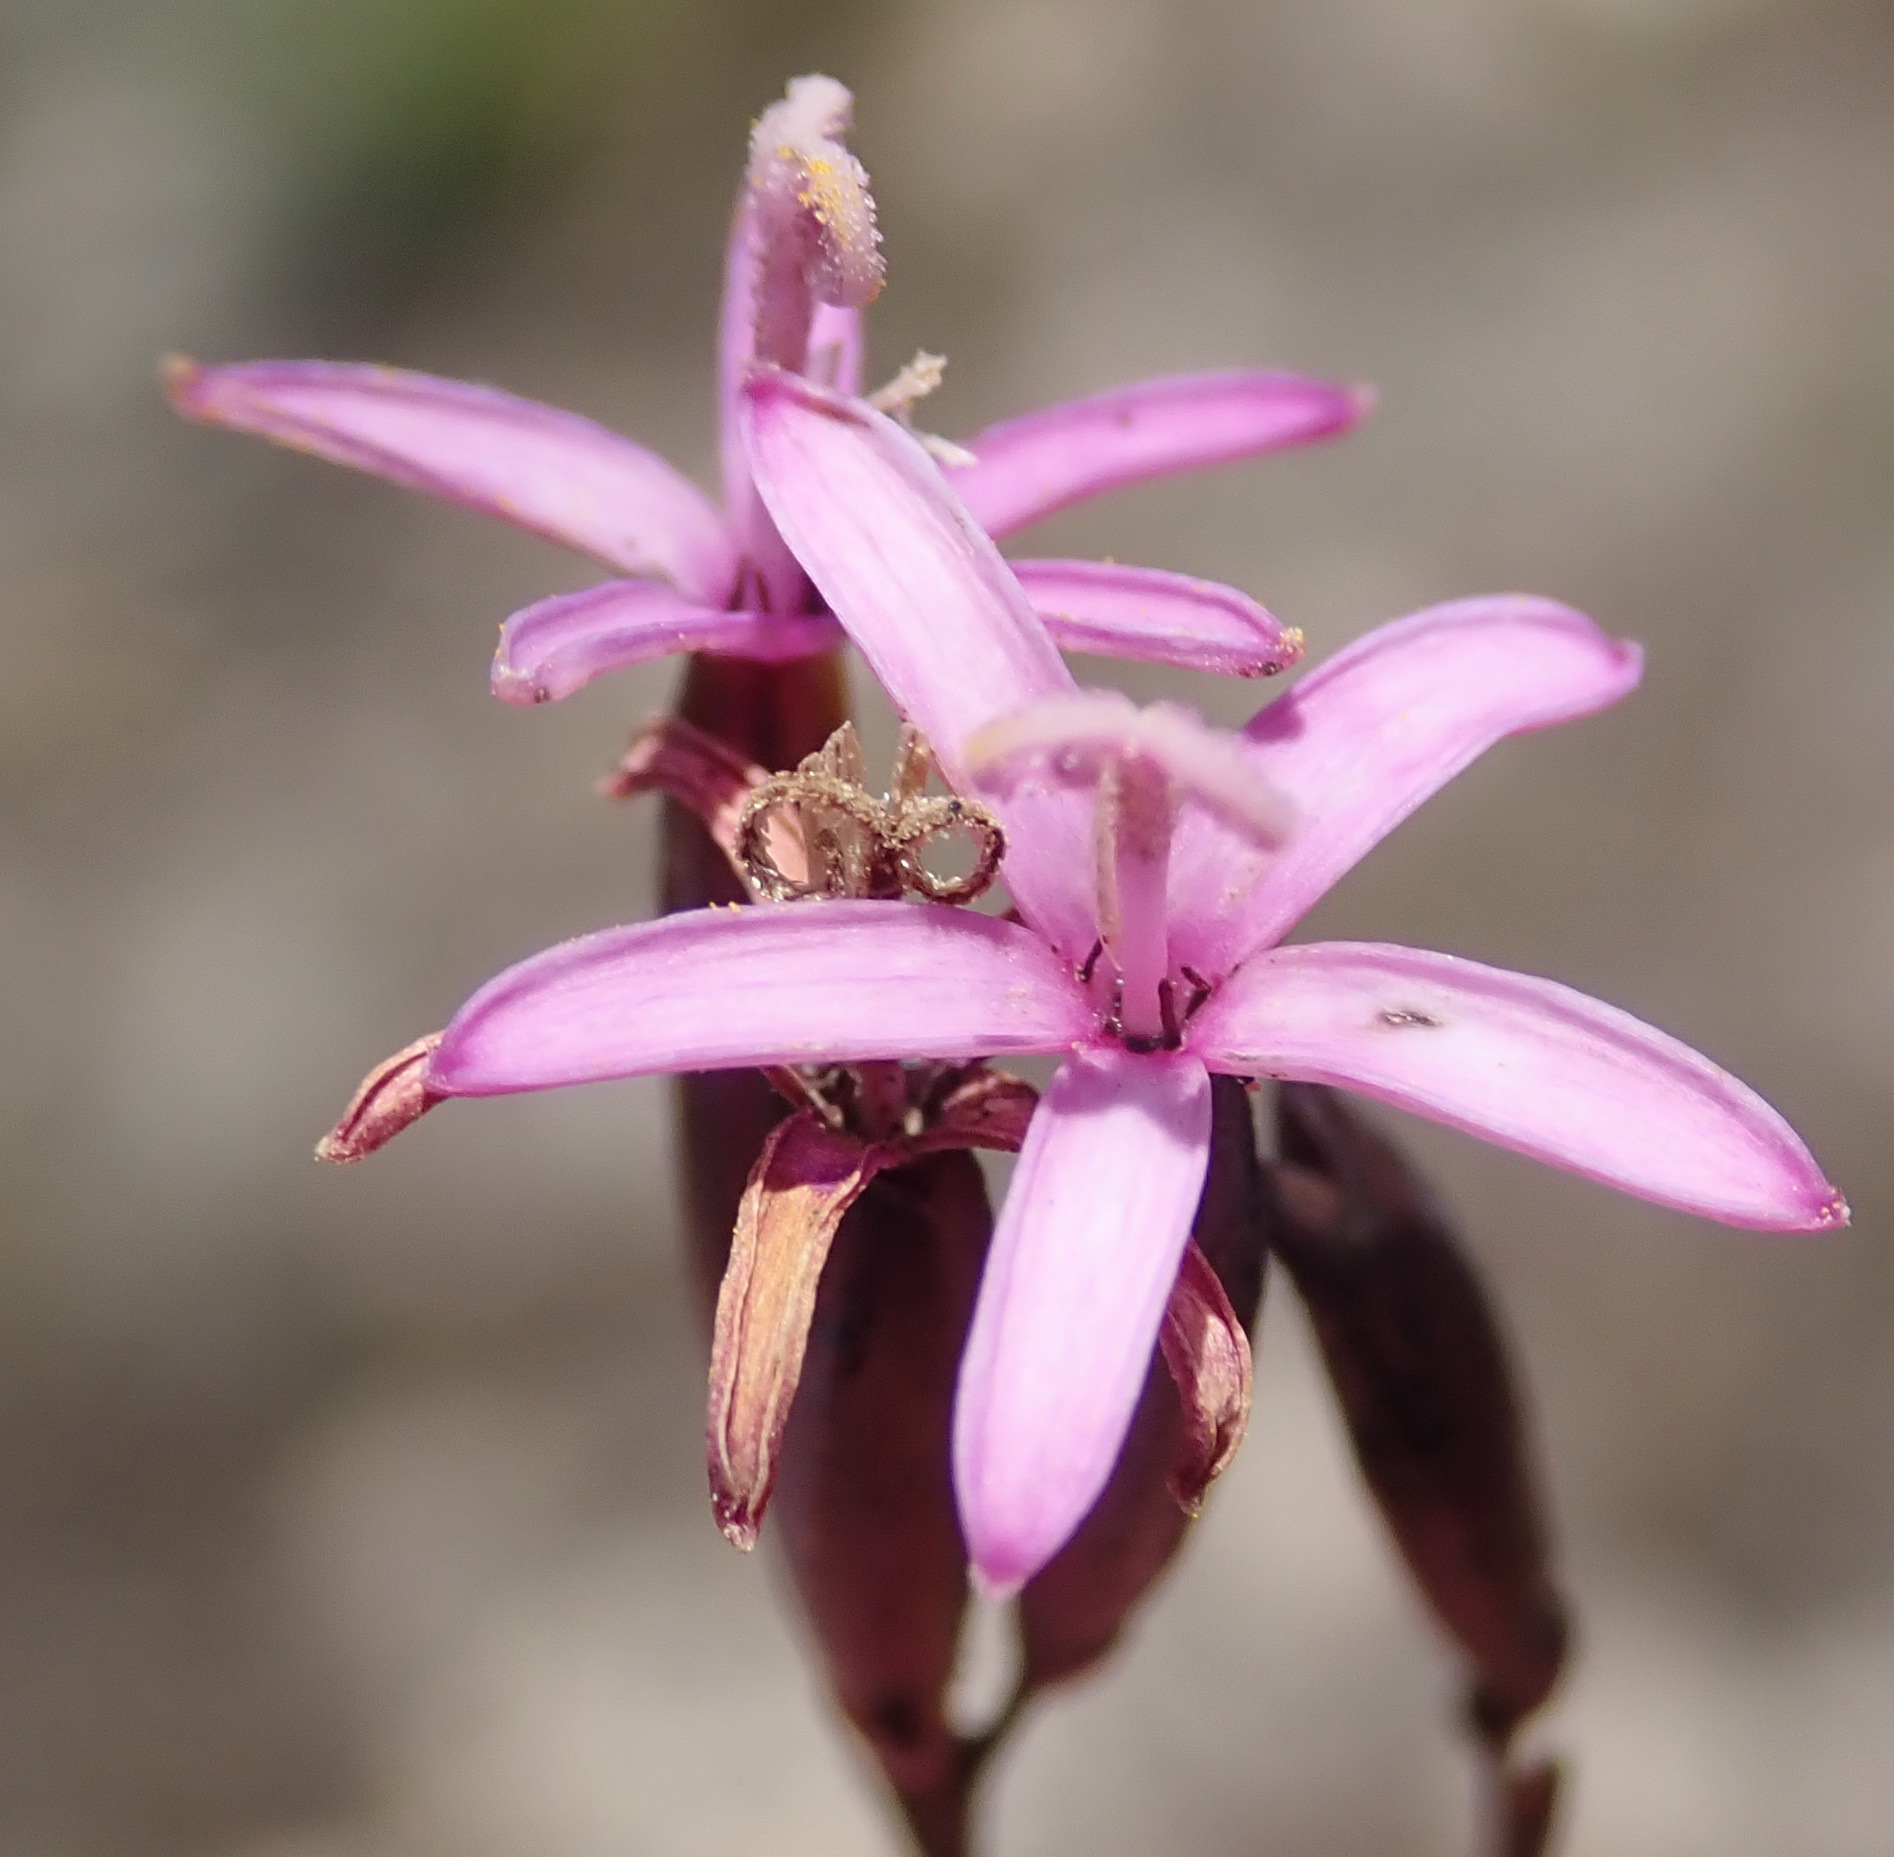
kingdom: Plantae
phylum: Tracheophyta
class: Magnoliopsida
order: Asterales
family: Asteraceae
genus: Corymbium
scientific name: Corymbium glabrum
